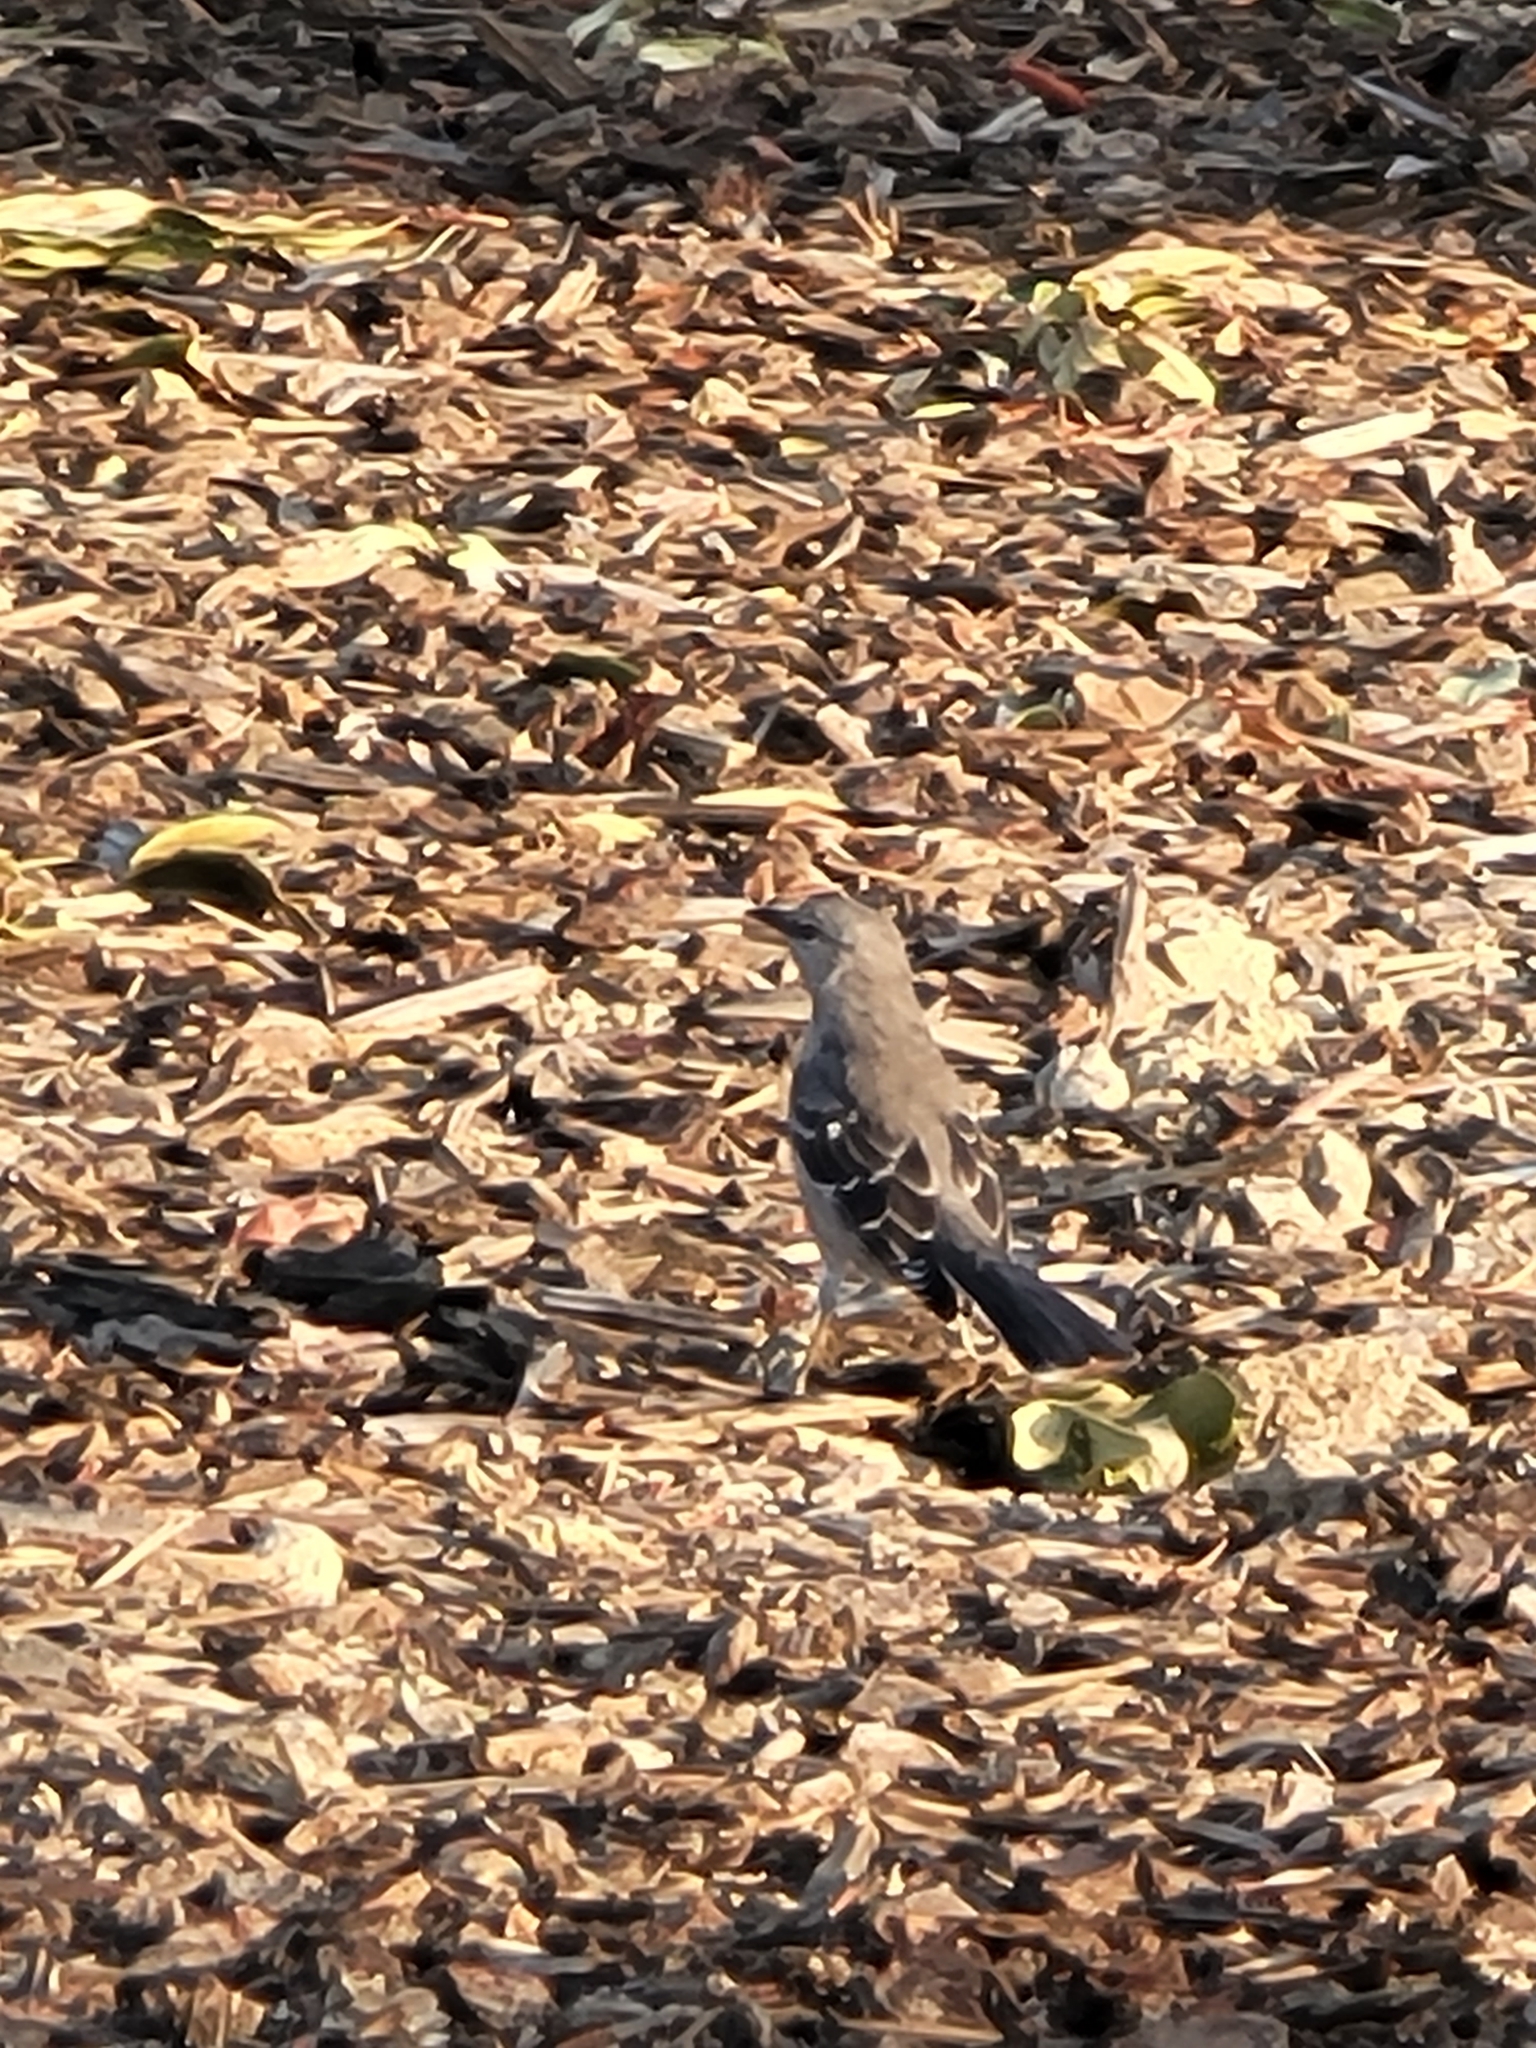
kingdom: Animalia
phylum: Chordata
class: Aves
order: Passeriformes
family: Mimidae
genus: Mimus
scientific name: Mimus polyglottos
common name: Northern mockingbird
